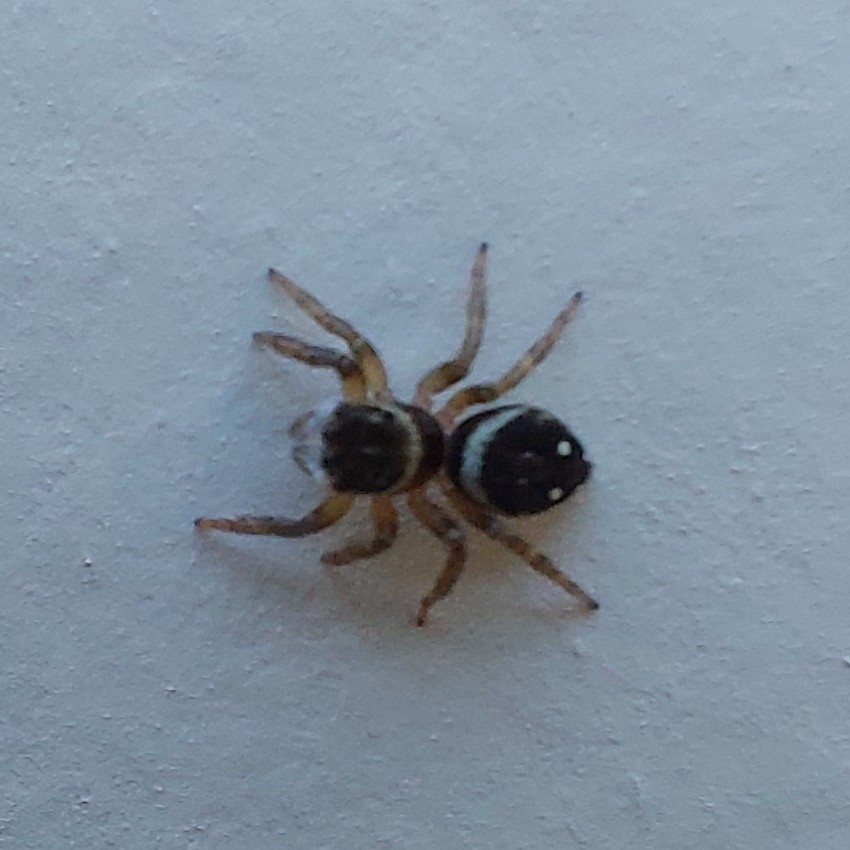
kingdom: Animalia
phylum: Arthropoda
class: Arachnida
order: Araneae
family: Salticidae
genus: Hasarius
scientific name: Hasarius adansoni
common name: Jumping spider
